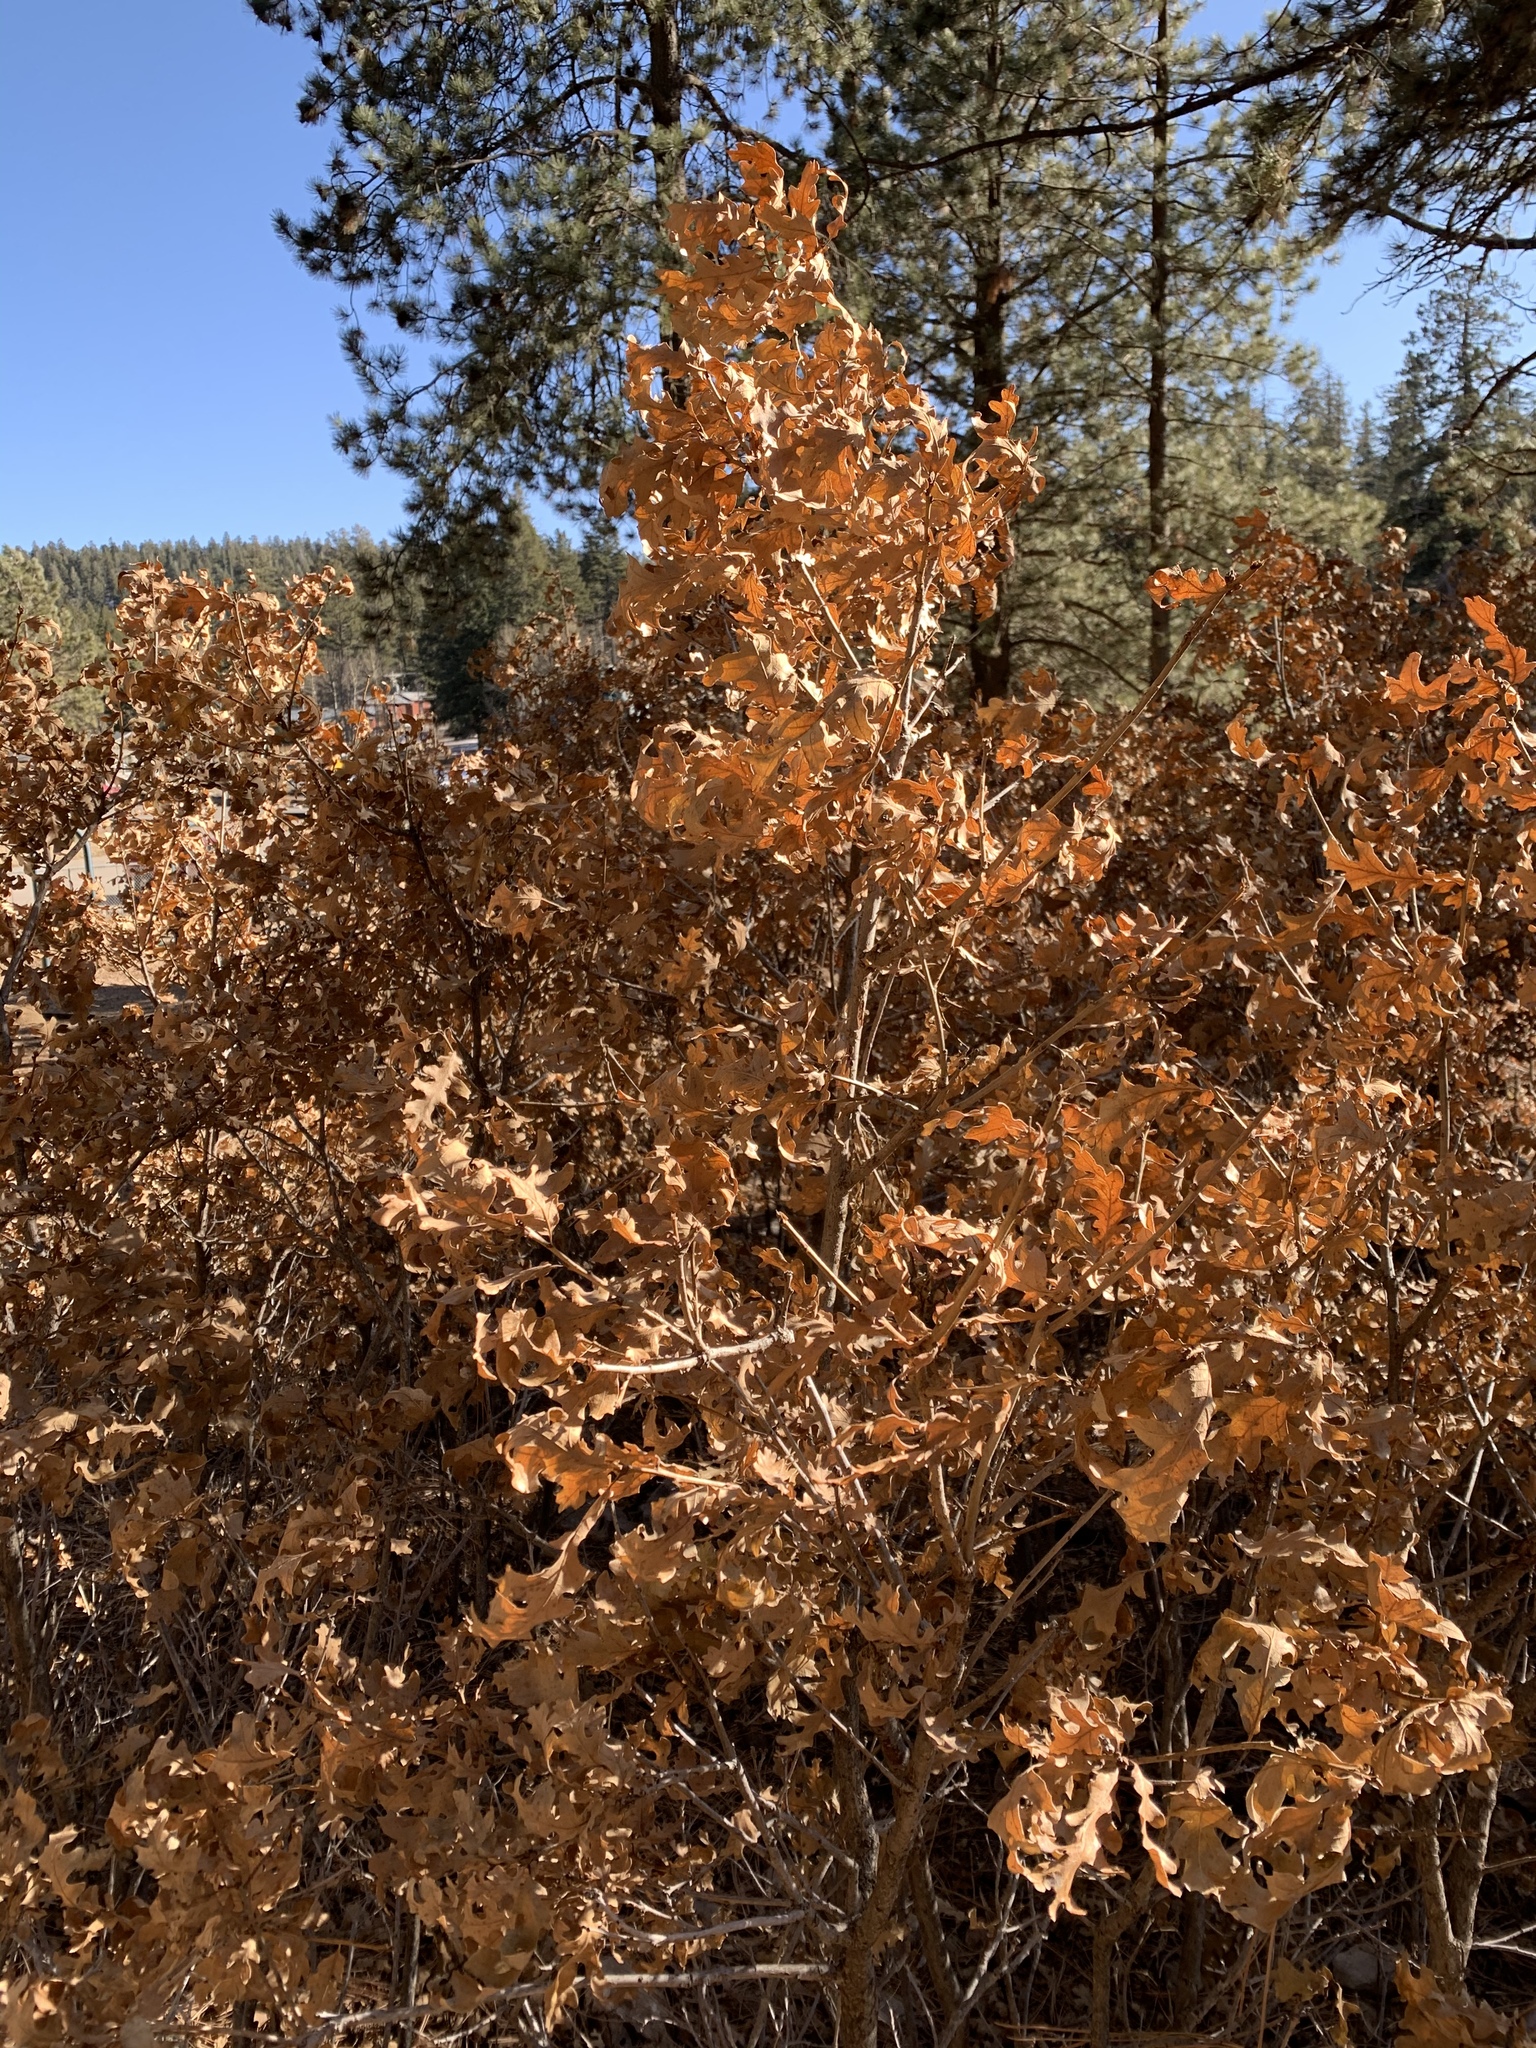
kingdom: Plantae
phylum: Tracheophyta
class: Magnoliopsida
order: Fagales
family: Fagaceae
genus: Quercus
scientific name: Quercus gambelii
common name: Gambel oak
